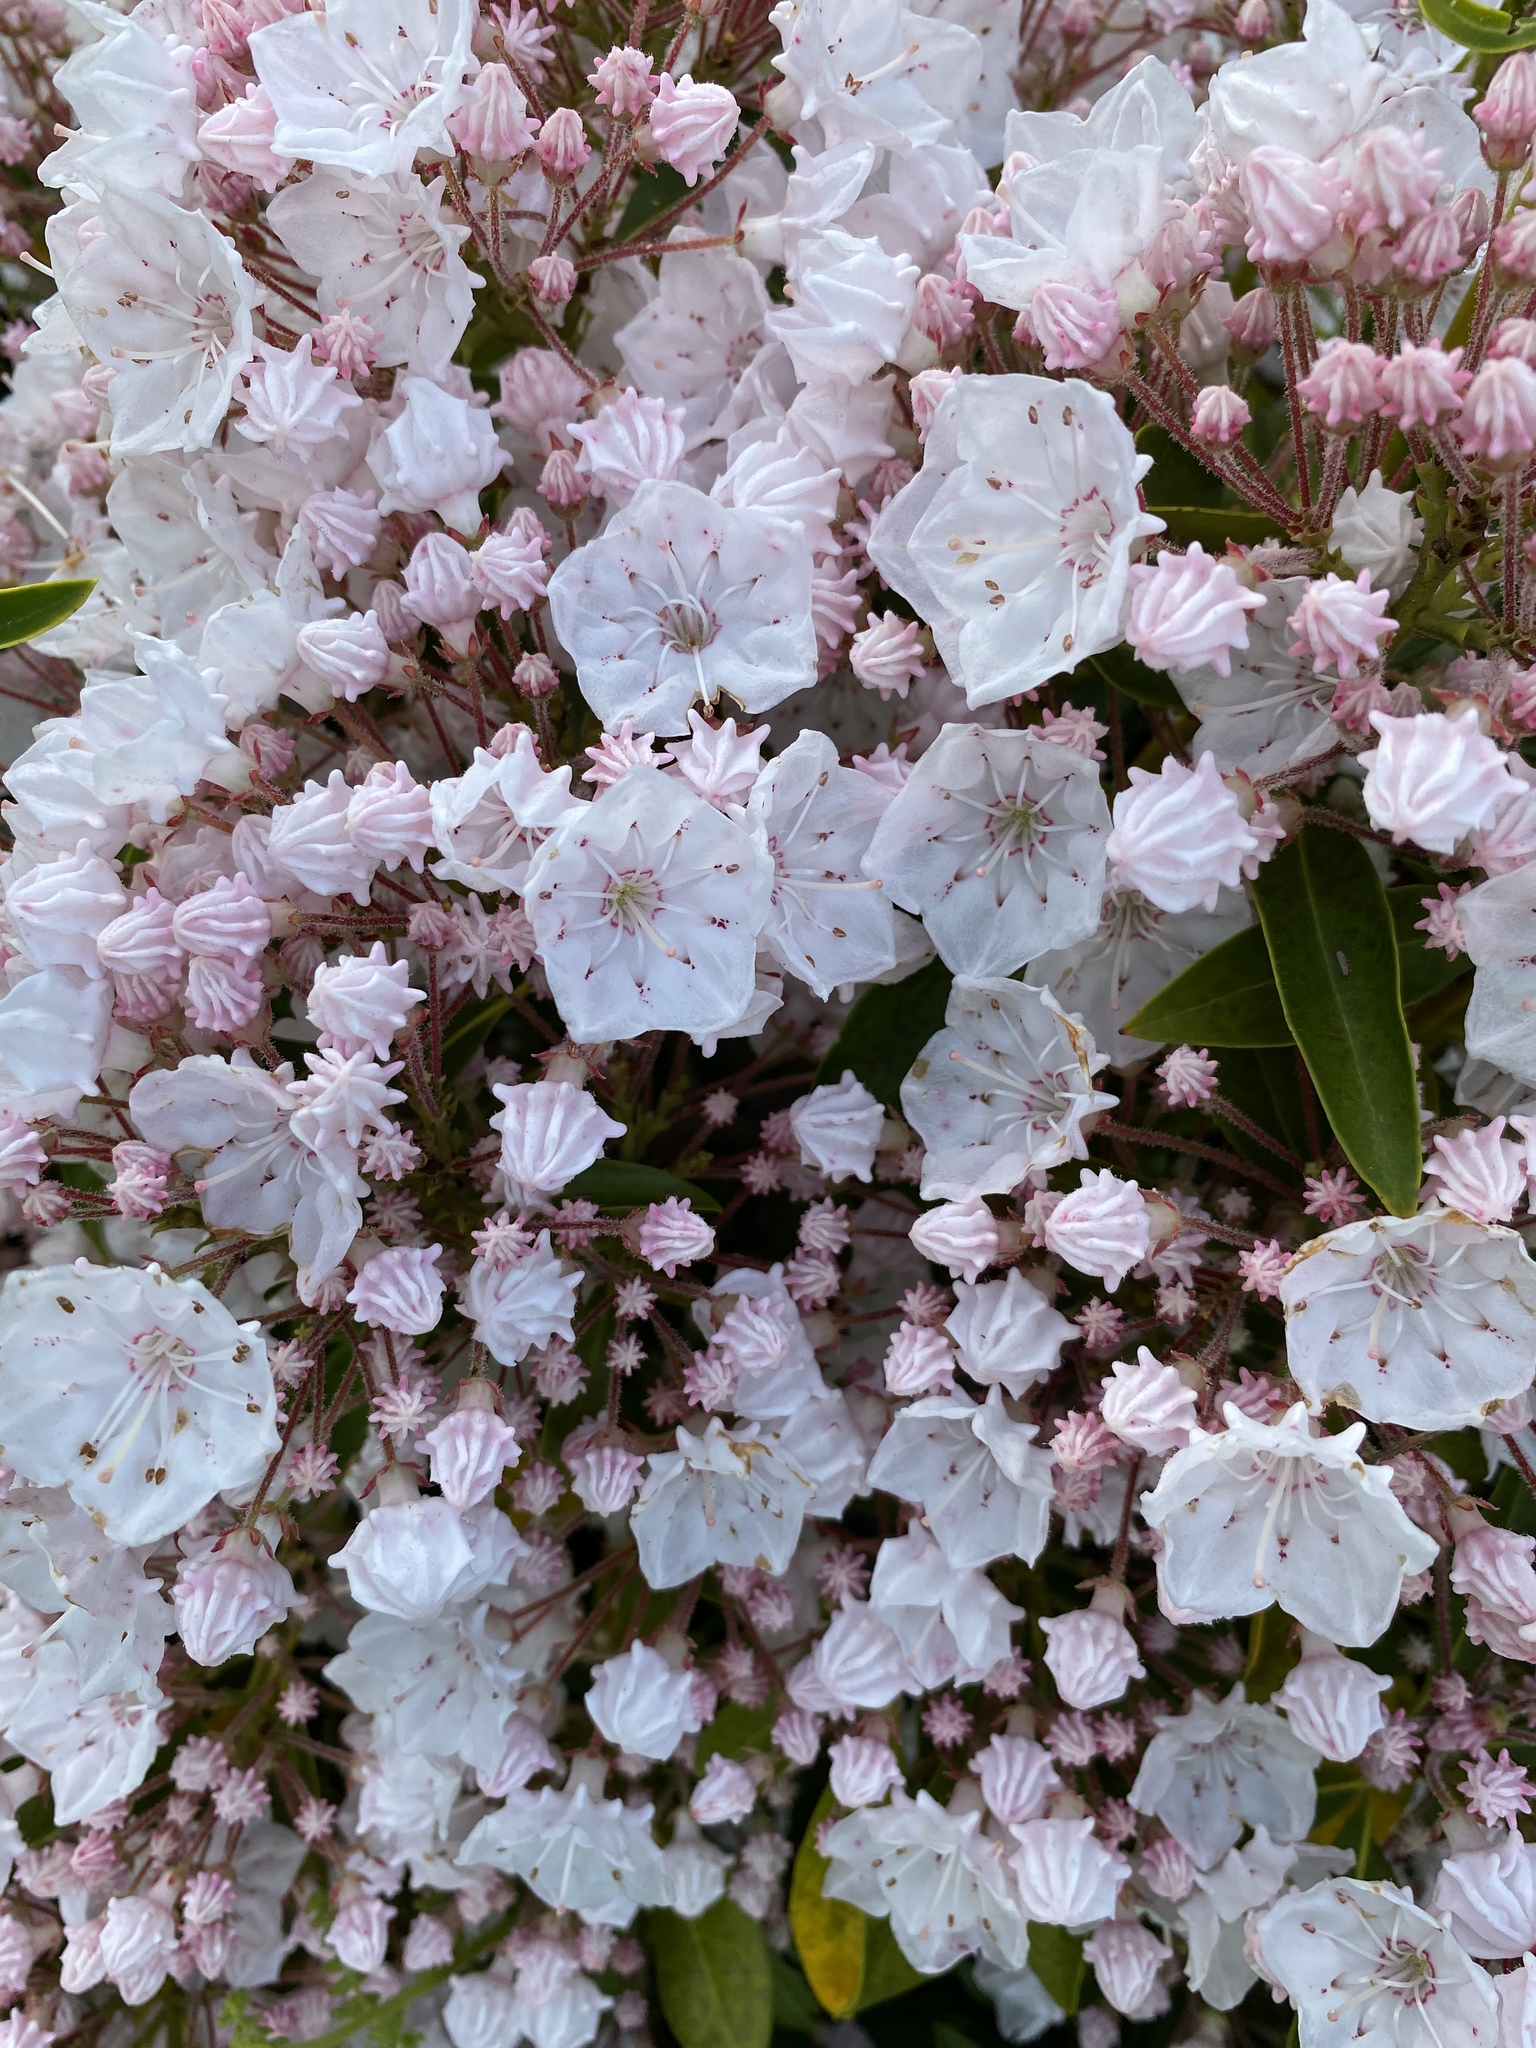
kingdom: Plantae
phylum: Tracheophyta
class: Magnoliopsida
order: Ericales
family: Ericaceae
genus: Kalmia
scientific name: Kalmia latifolia
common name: Mountain-laurel
